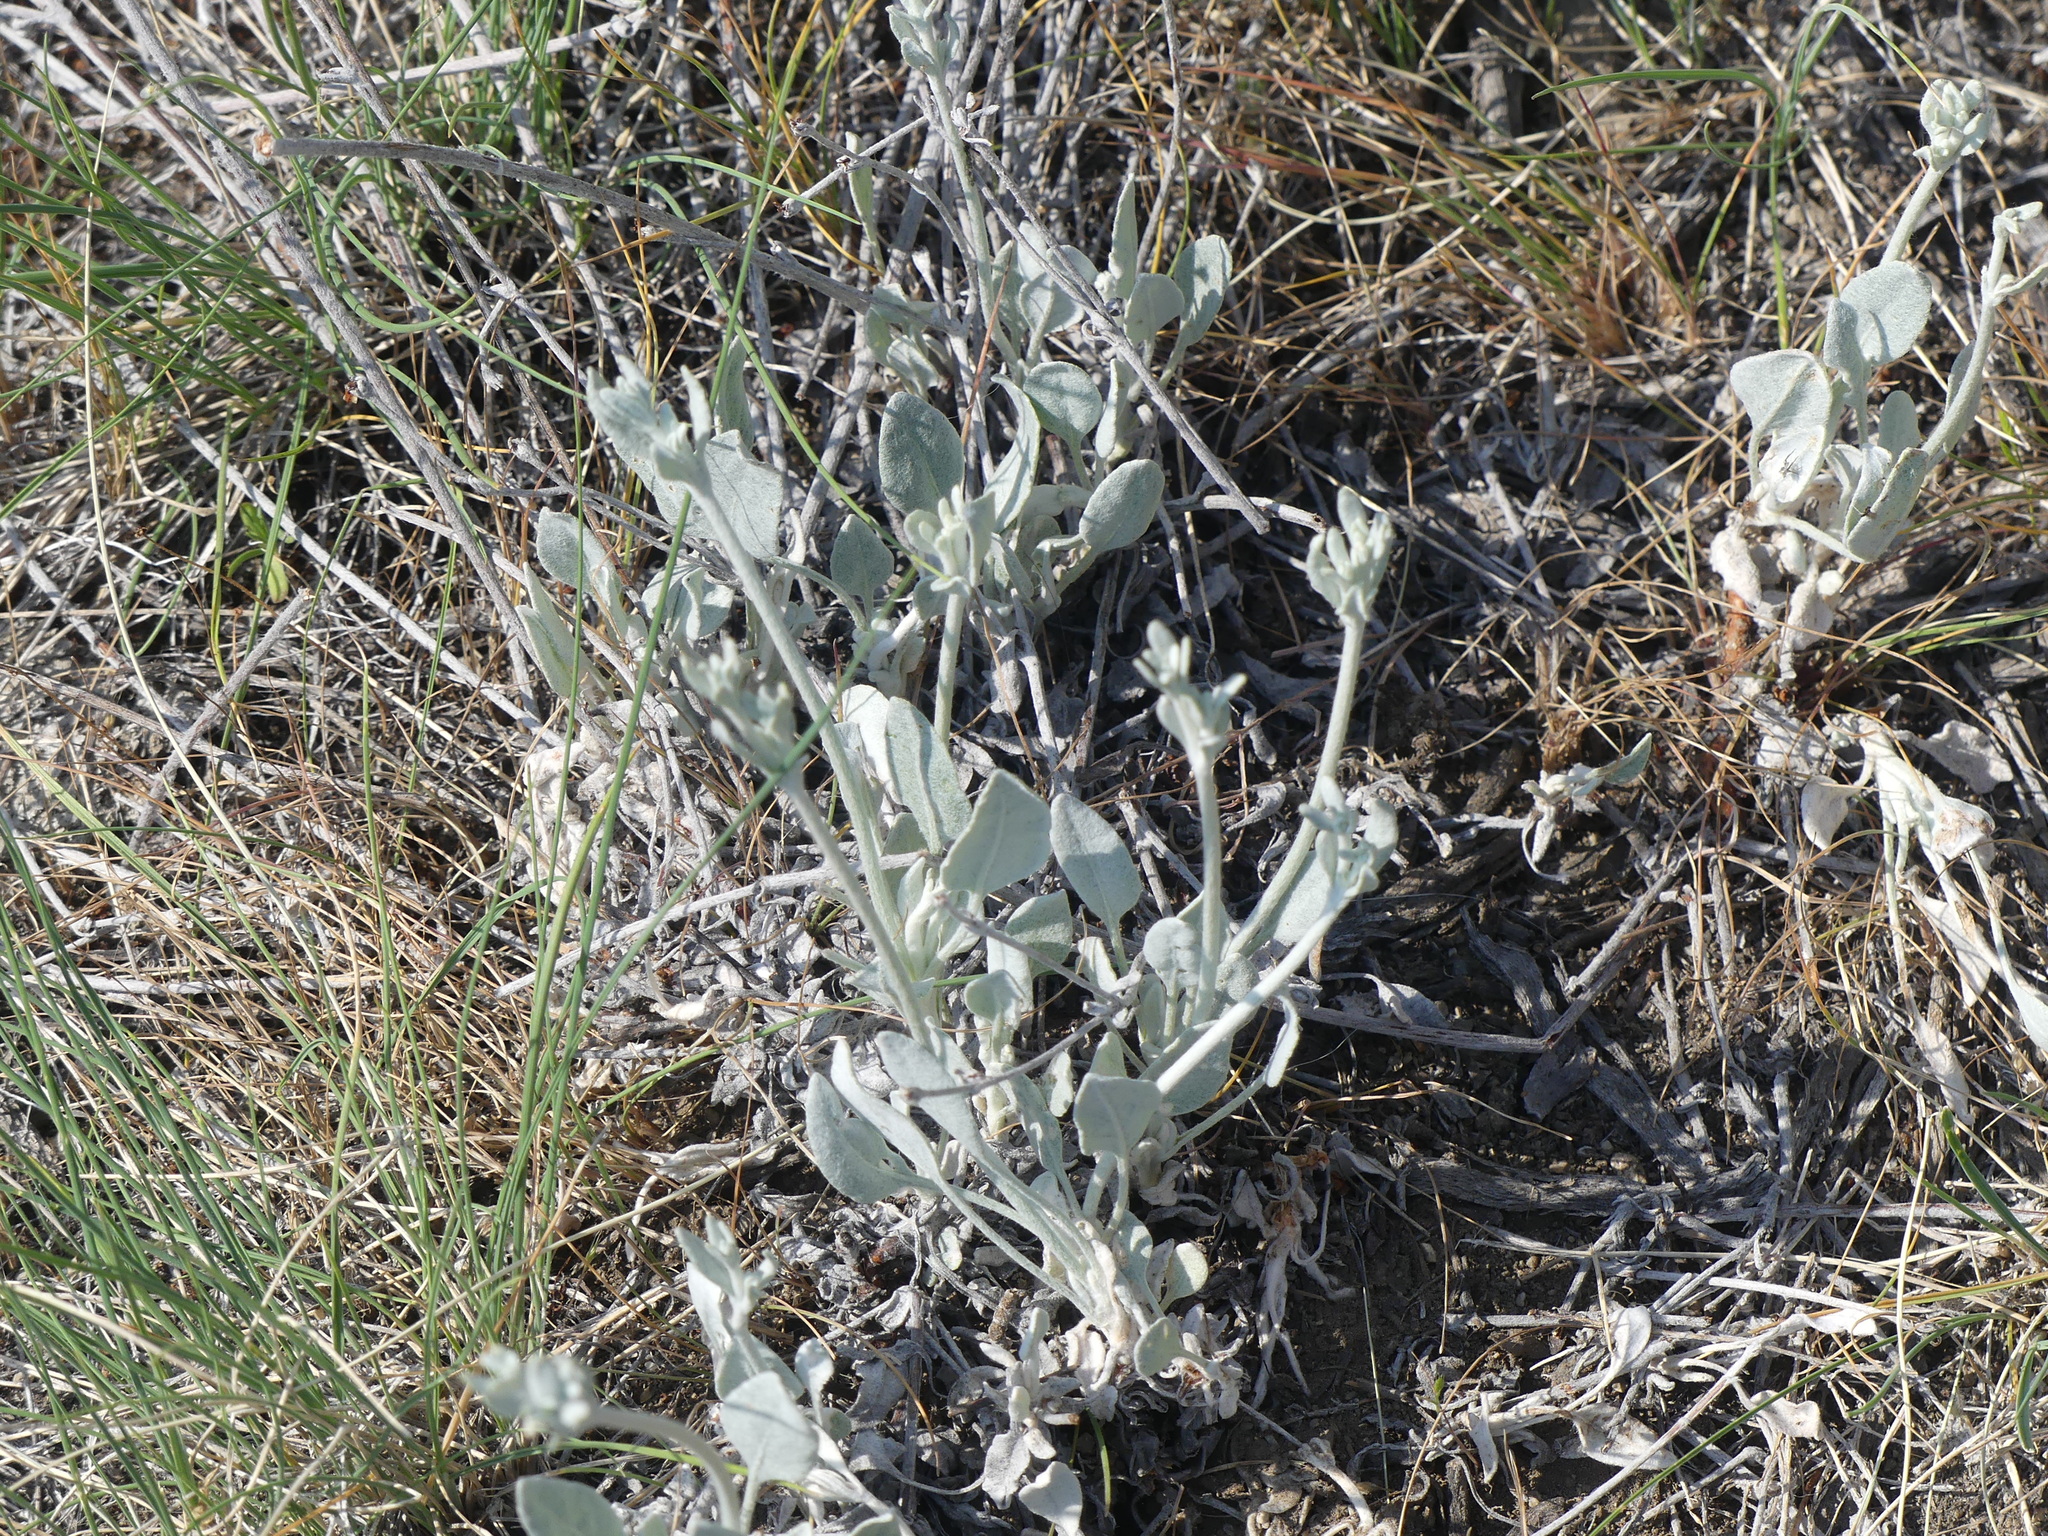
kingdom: Plantae
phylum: Tracheophyta
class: Magnoliopsida
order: Caryophyllales
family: Polygonaceae
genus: Eriogonum
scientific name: Eriogonum niveum
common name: Snow wild buckwheat
